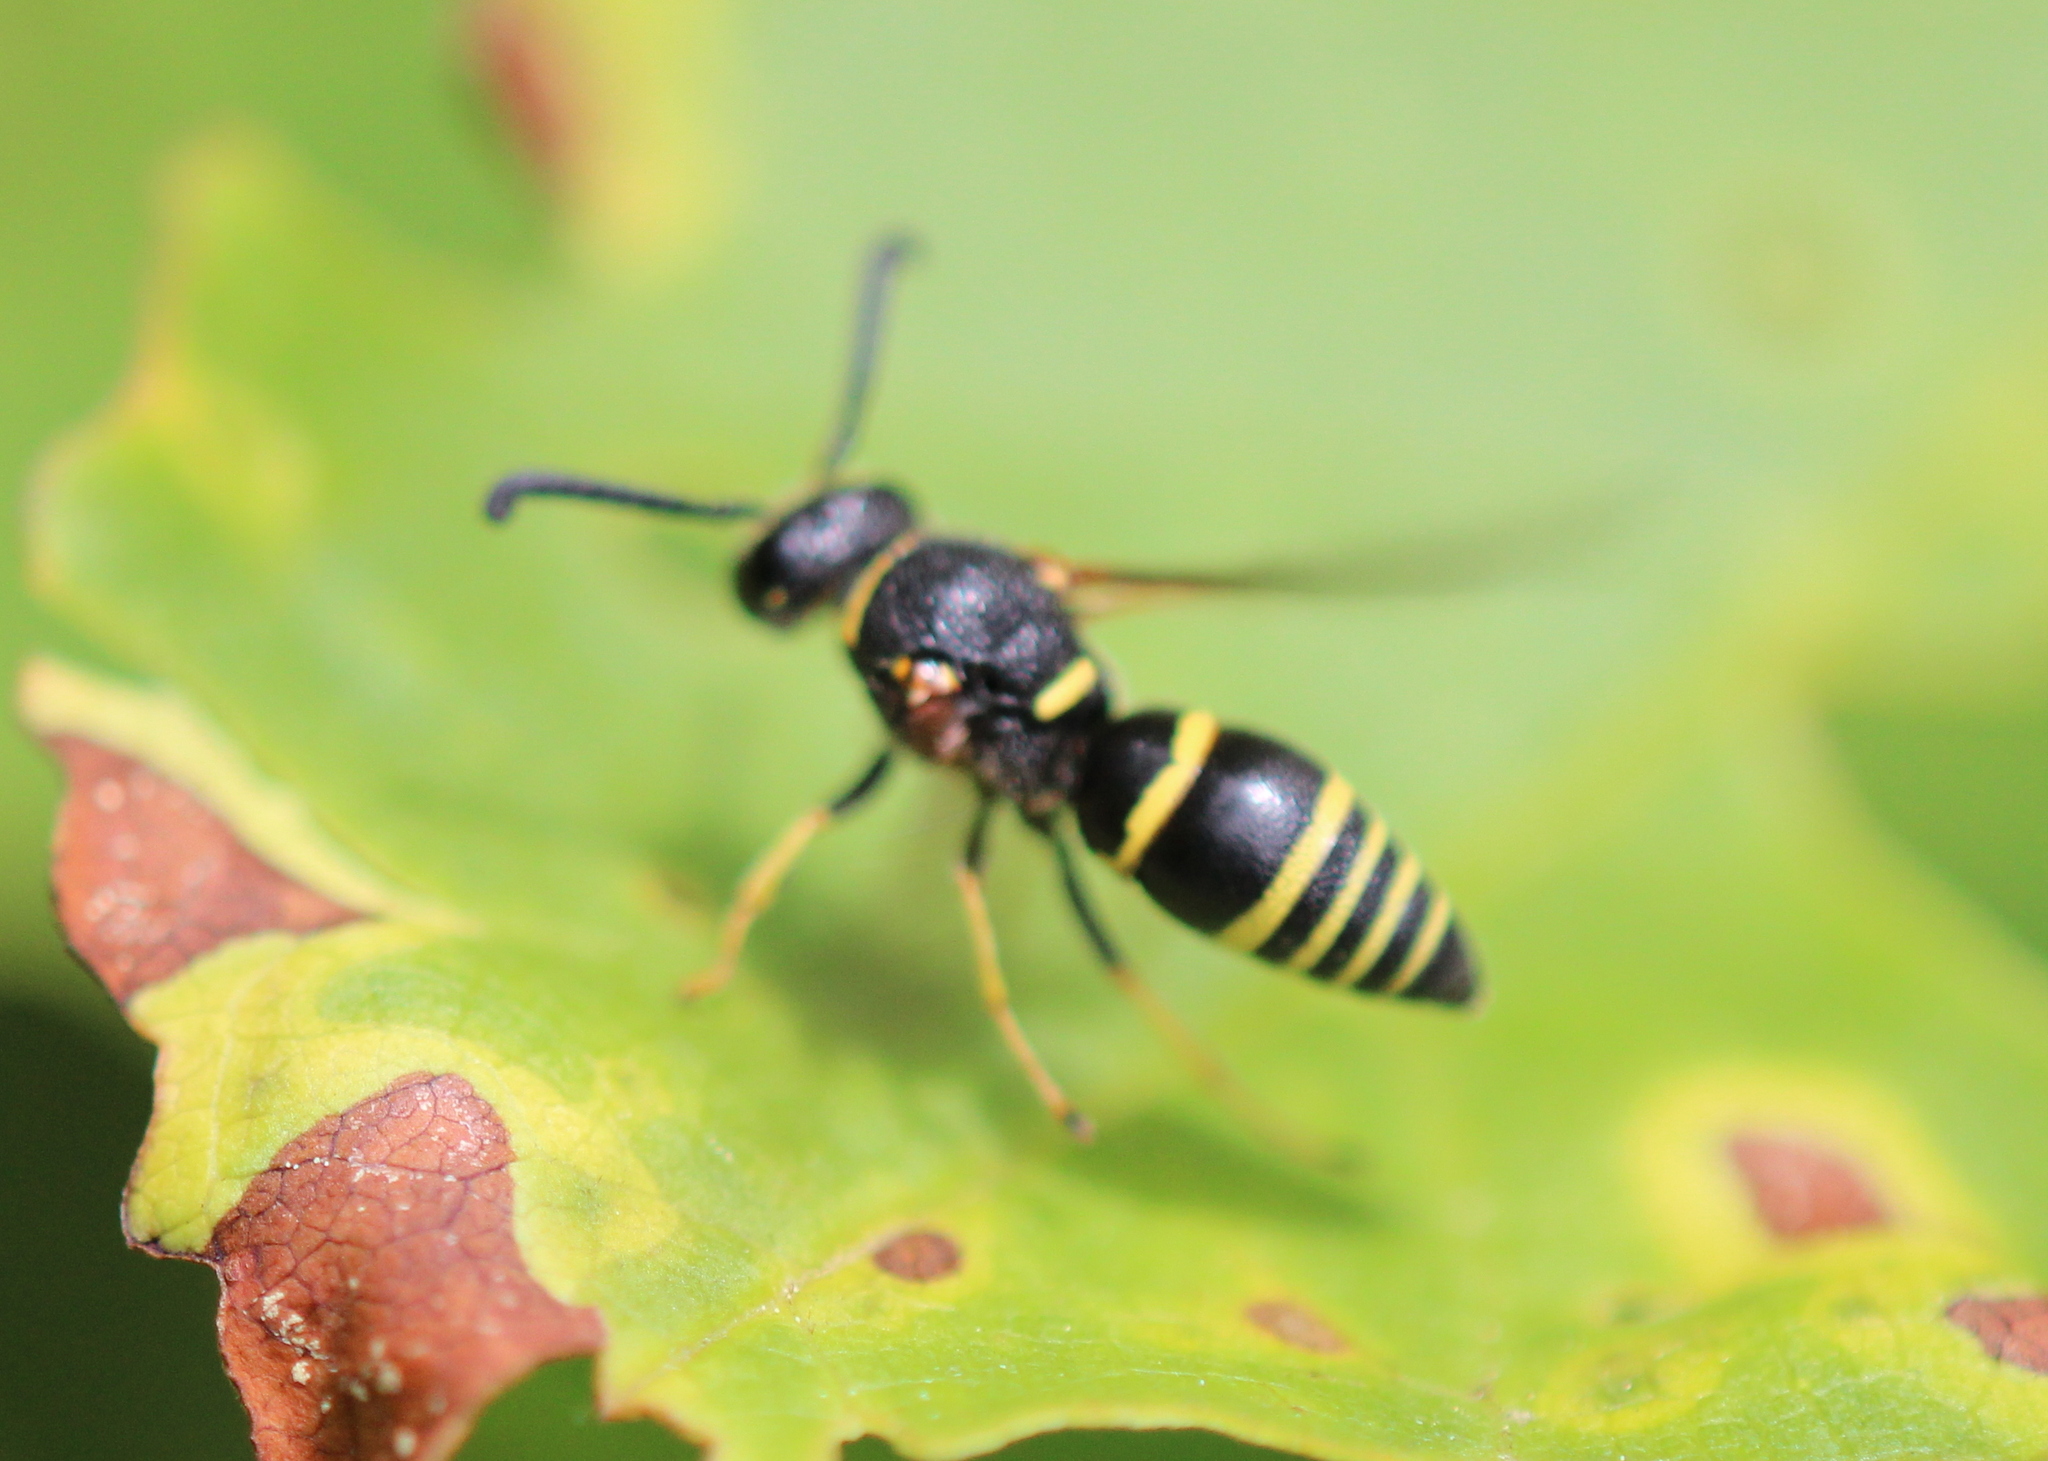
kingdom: Animalia
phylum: Arthropoda
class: Insecta
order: Hymenoptera
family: Eumenidae
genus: Euodynerus
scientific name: Euodynerus foraminatus
